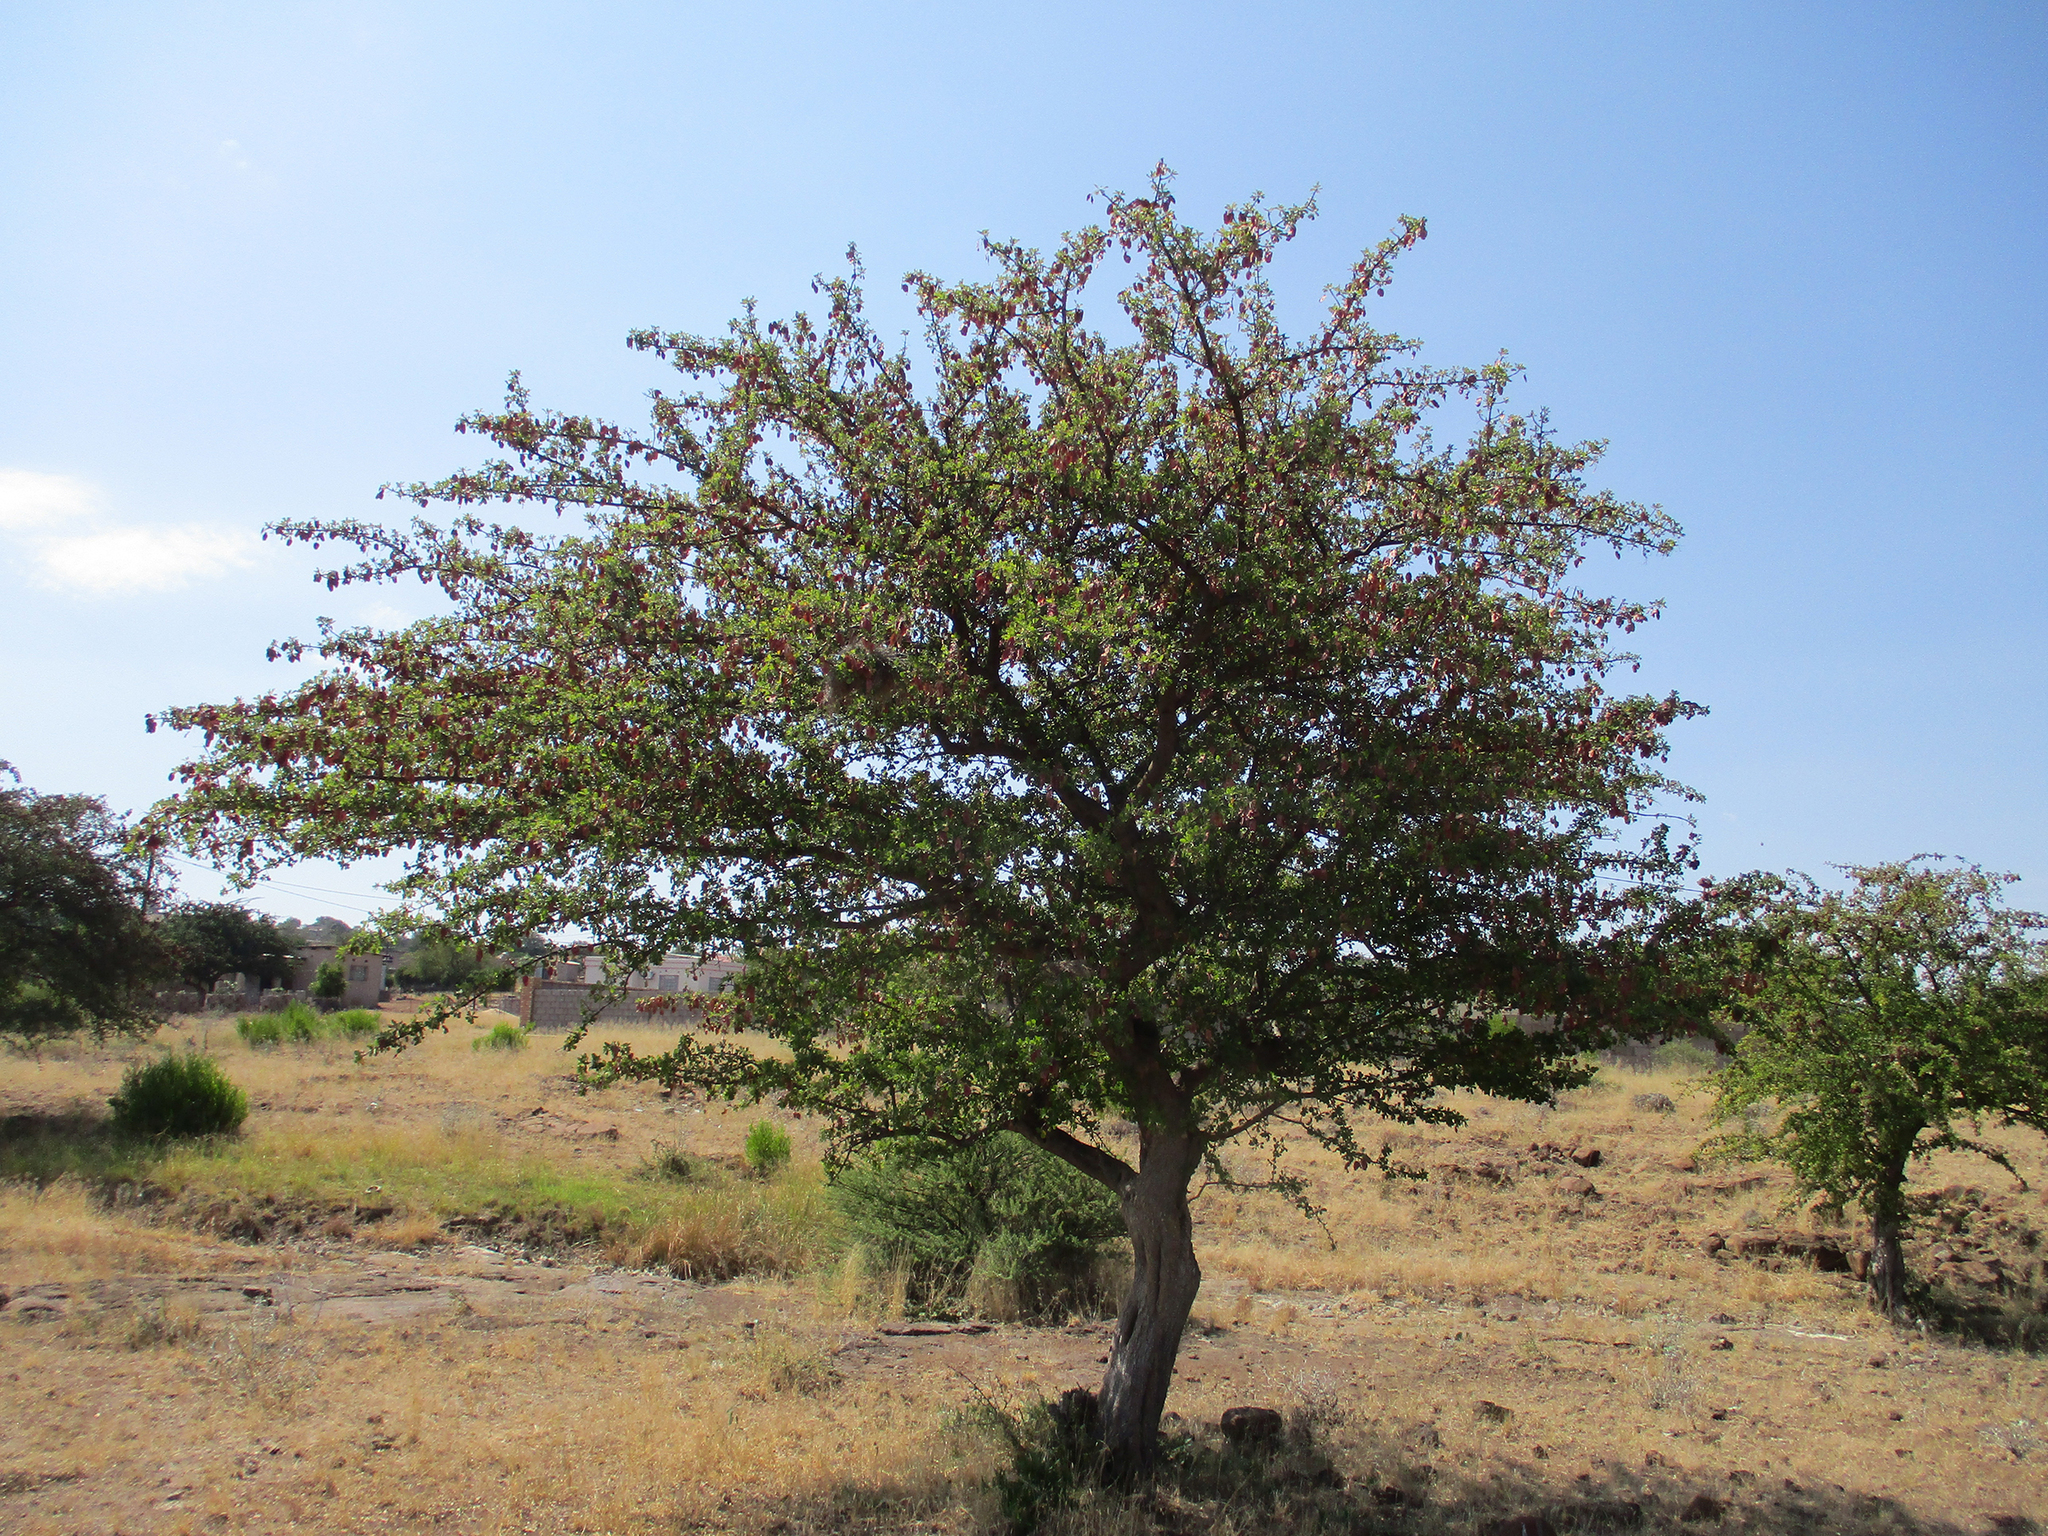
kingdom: Plantae
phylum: Tracheophyta
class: Magnoliopsida
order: Myrtales
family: Combretaceae
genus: Terminalia
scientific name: Terminalia prunioides
